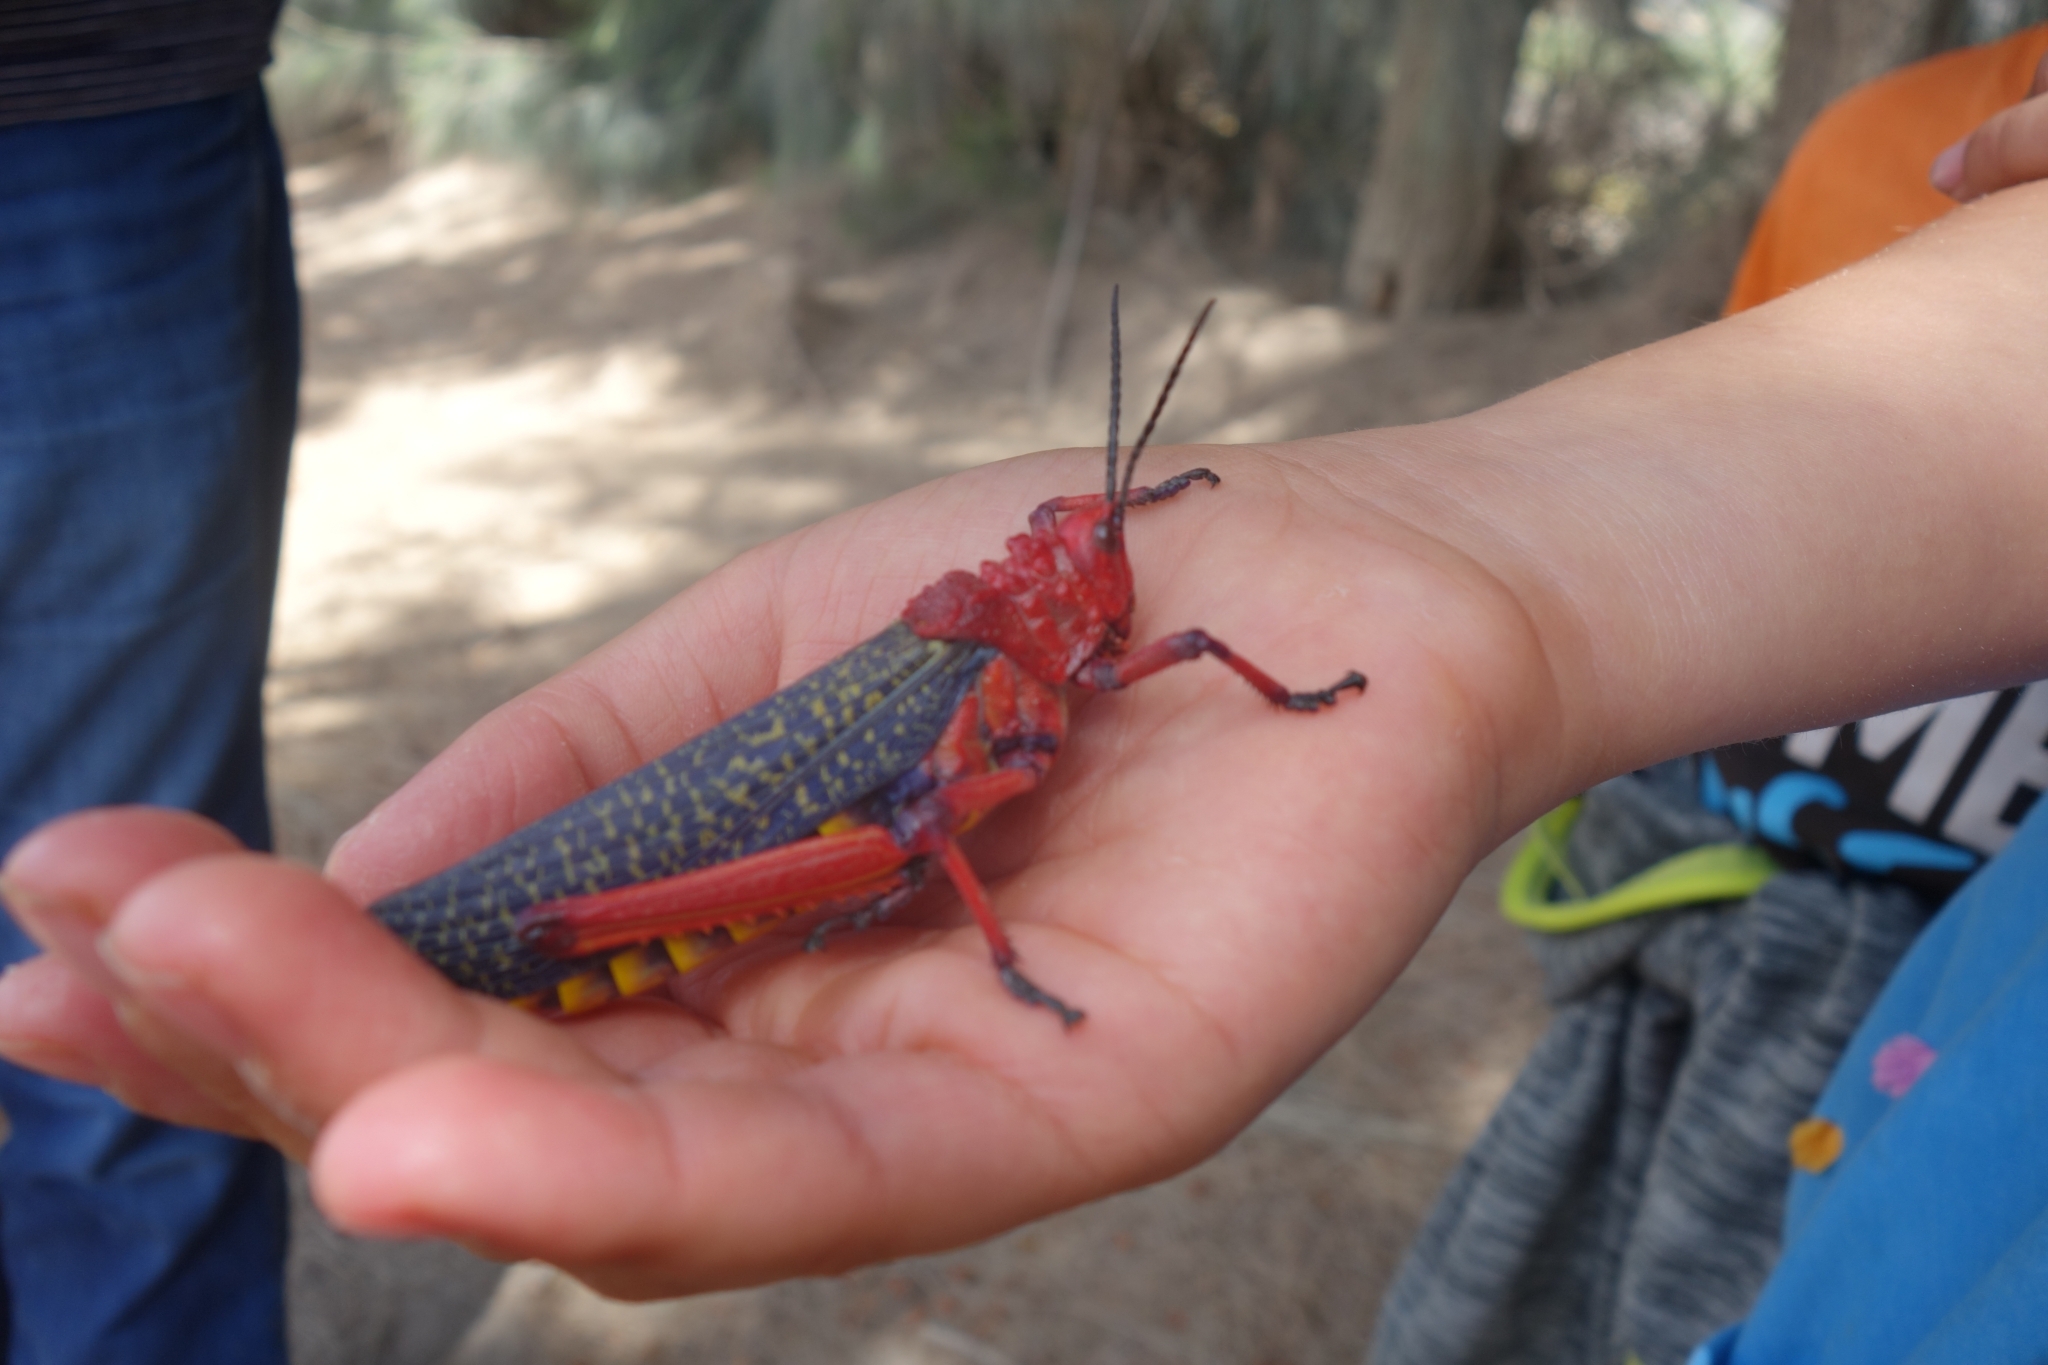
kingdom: Animalia
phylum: Arthropoda
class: Insecta
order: Orthoptera
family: Pyrgomorphidae
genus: Phymateus
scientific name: Phymateus morbillosus
